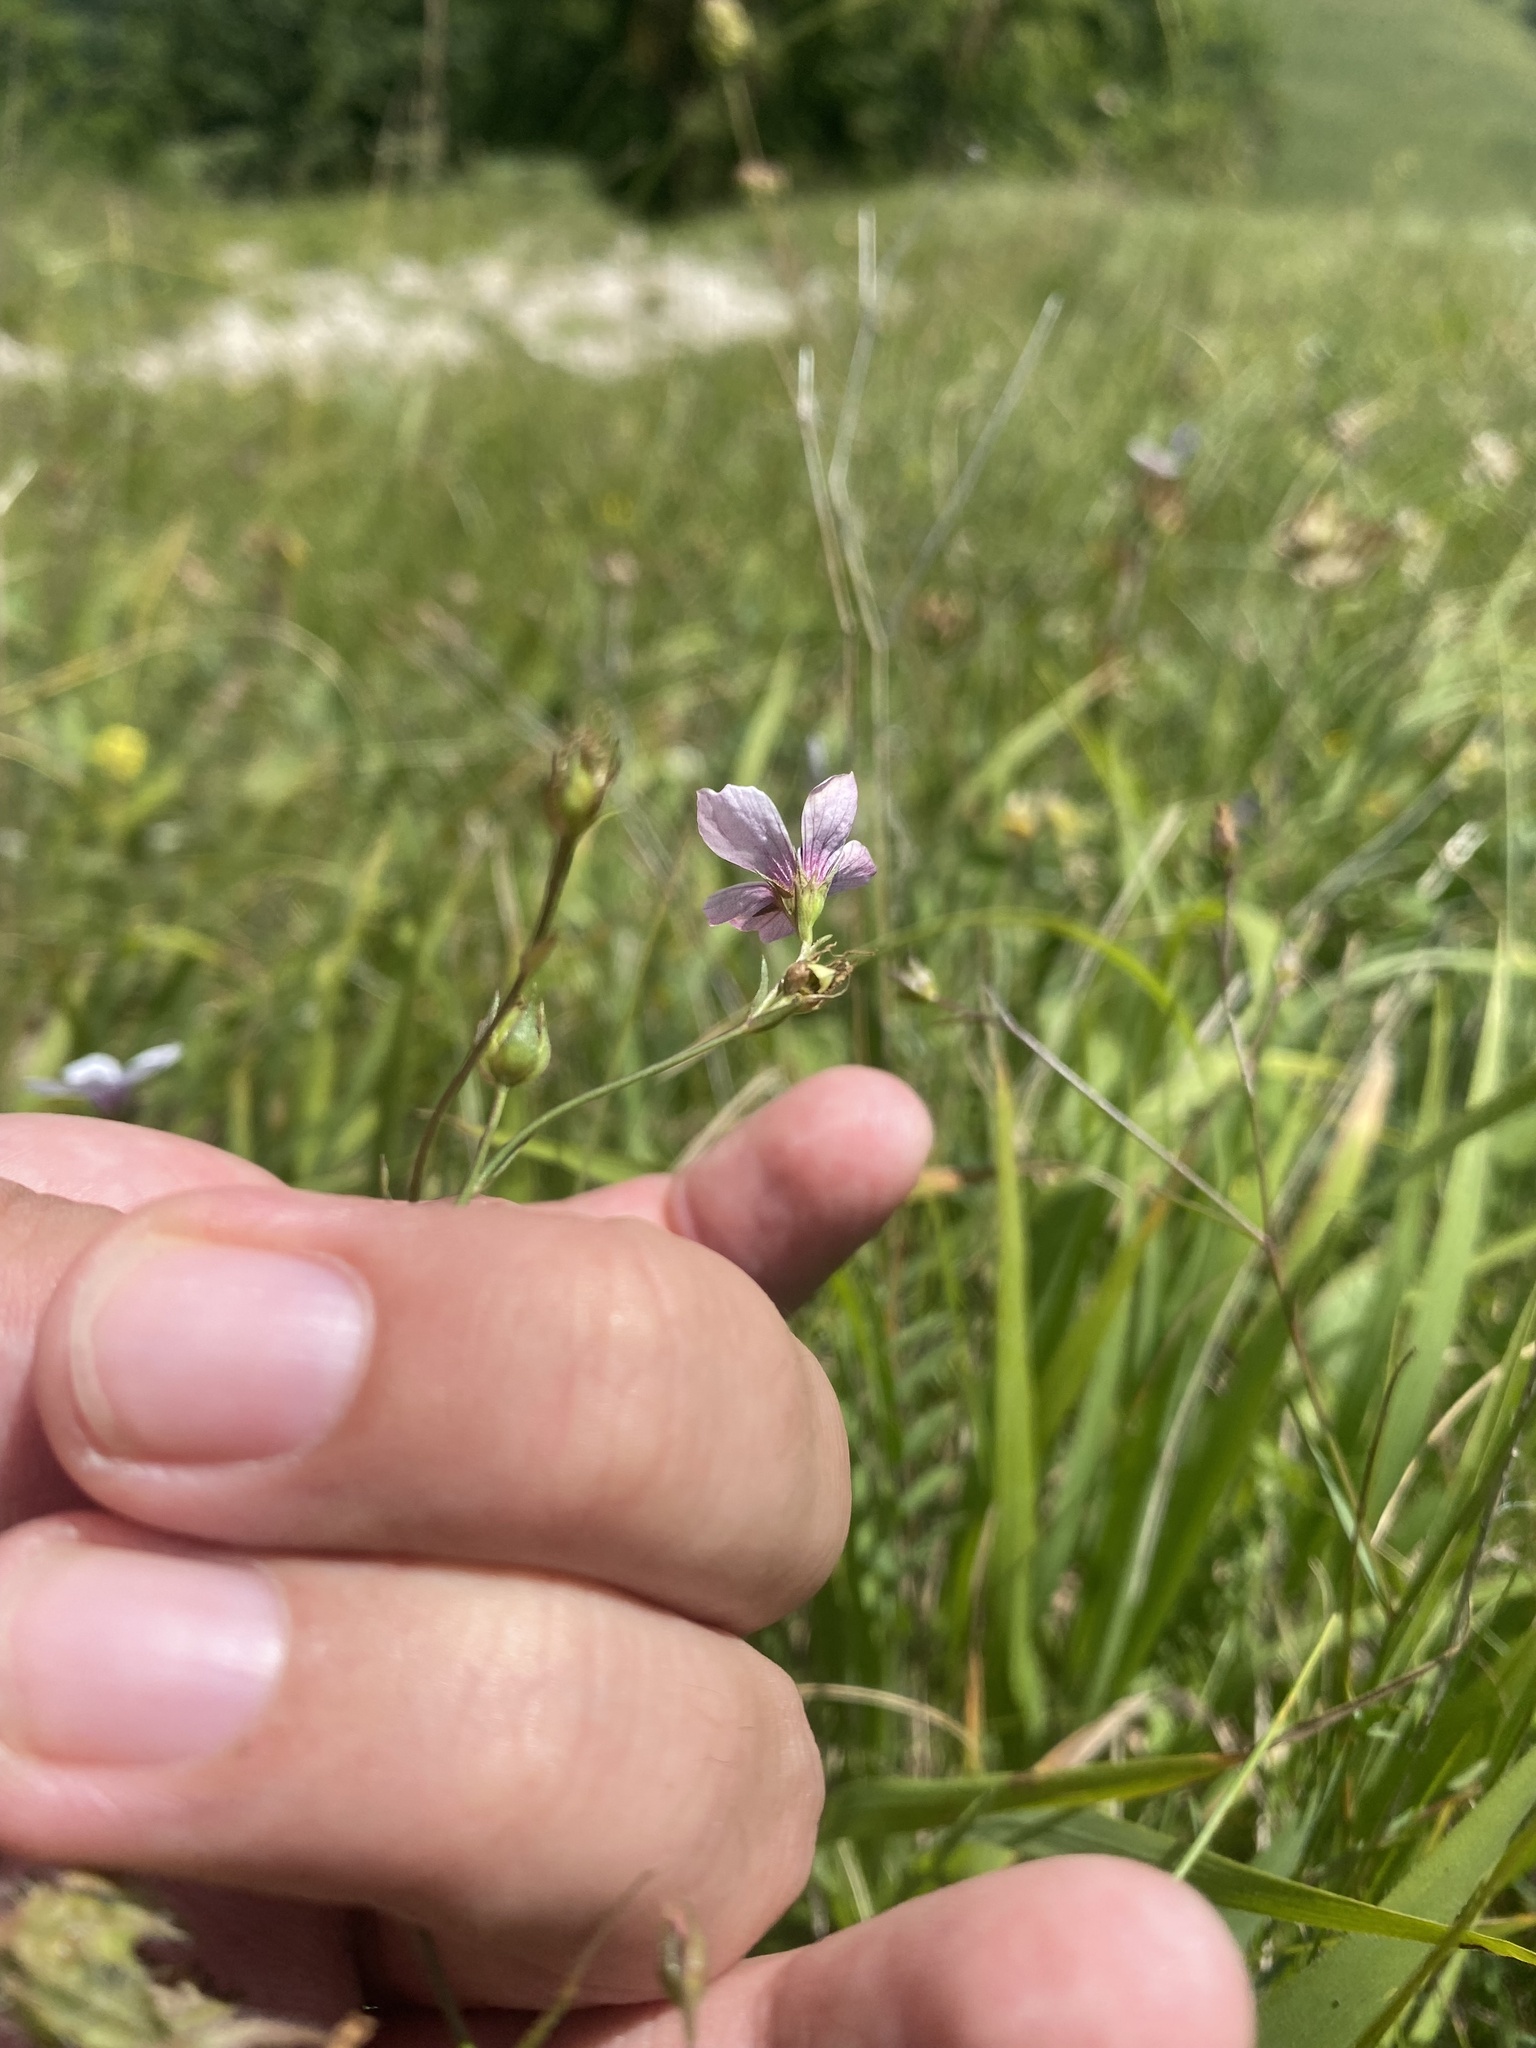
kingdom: Plantae
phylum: Tracheophyta
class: Magnoliopsida
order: Malpighiales
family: Linaceae
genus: Linum
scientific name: Linum tenuifolium
